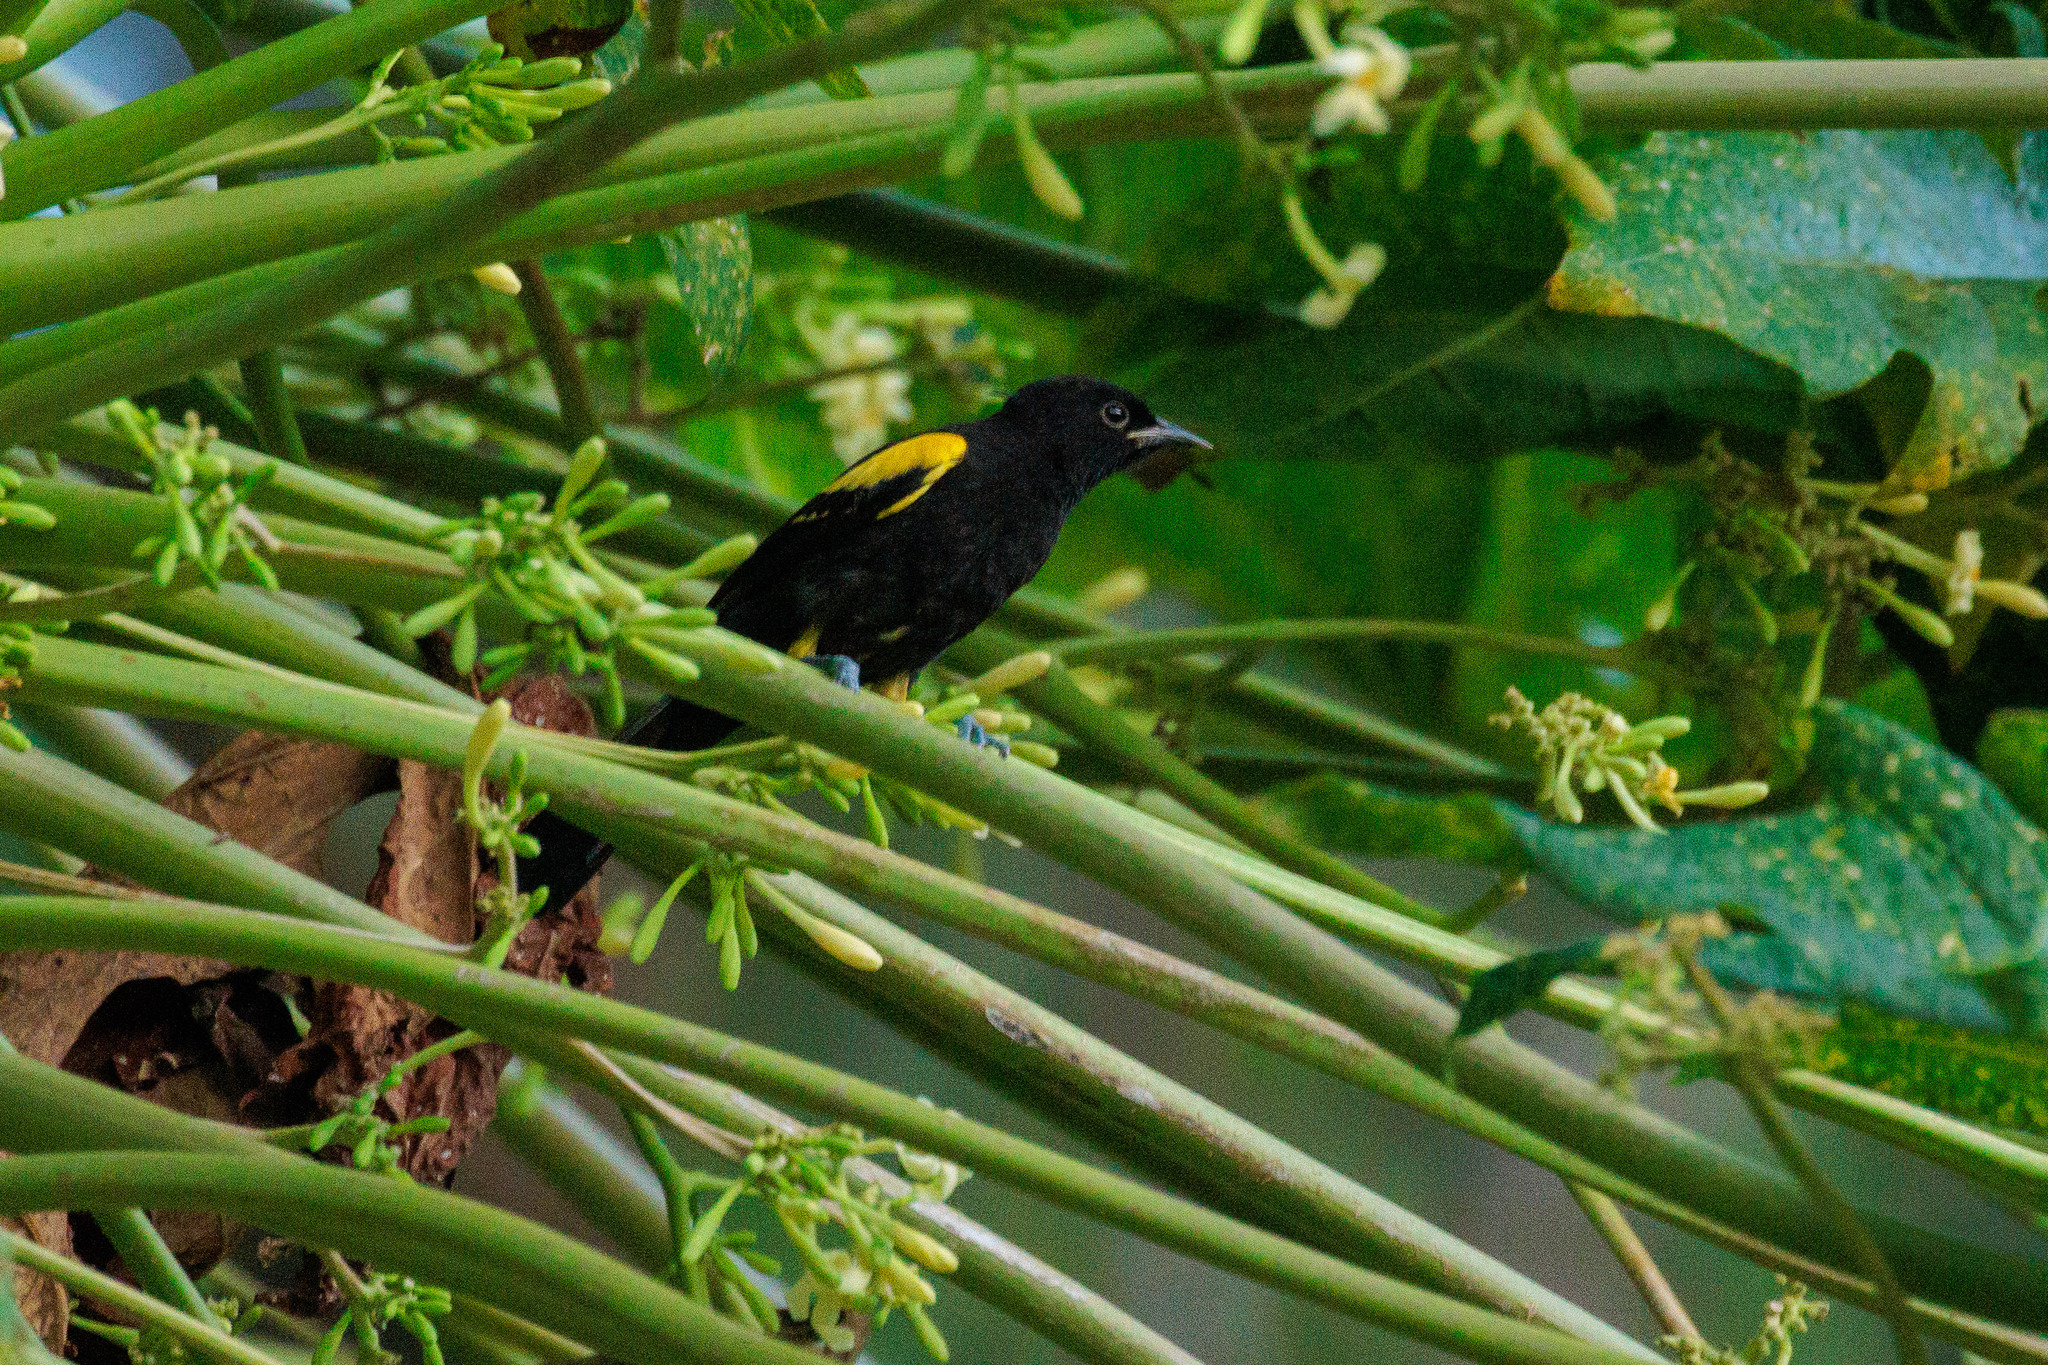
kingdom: Animalia
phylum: Chordata
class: Aves
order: Passeriformes
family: Icteridae
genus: Icterus
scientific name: Icterus cayanensis
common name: Epaulet oriole
